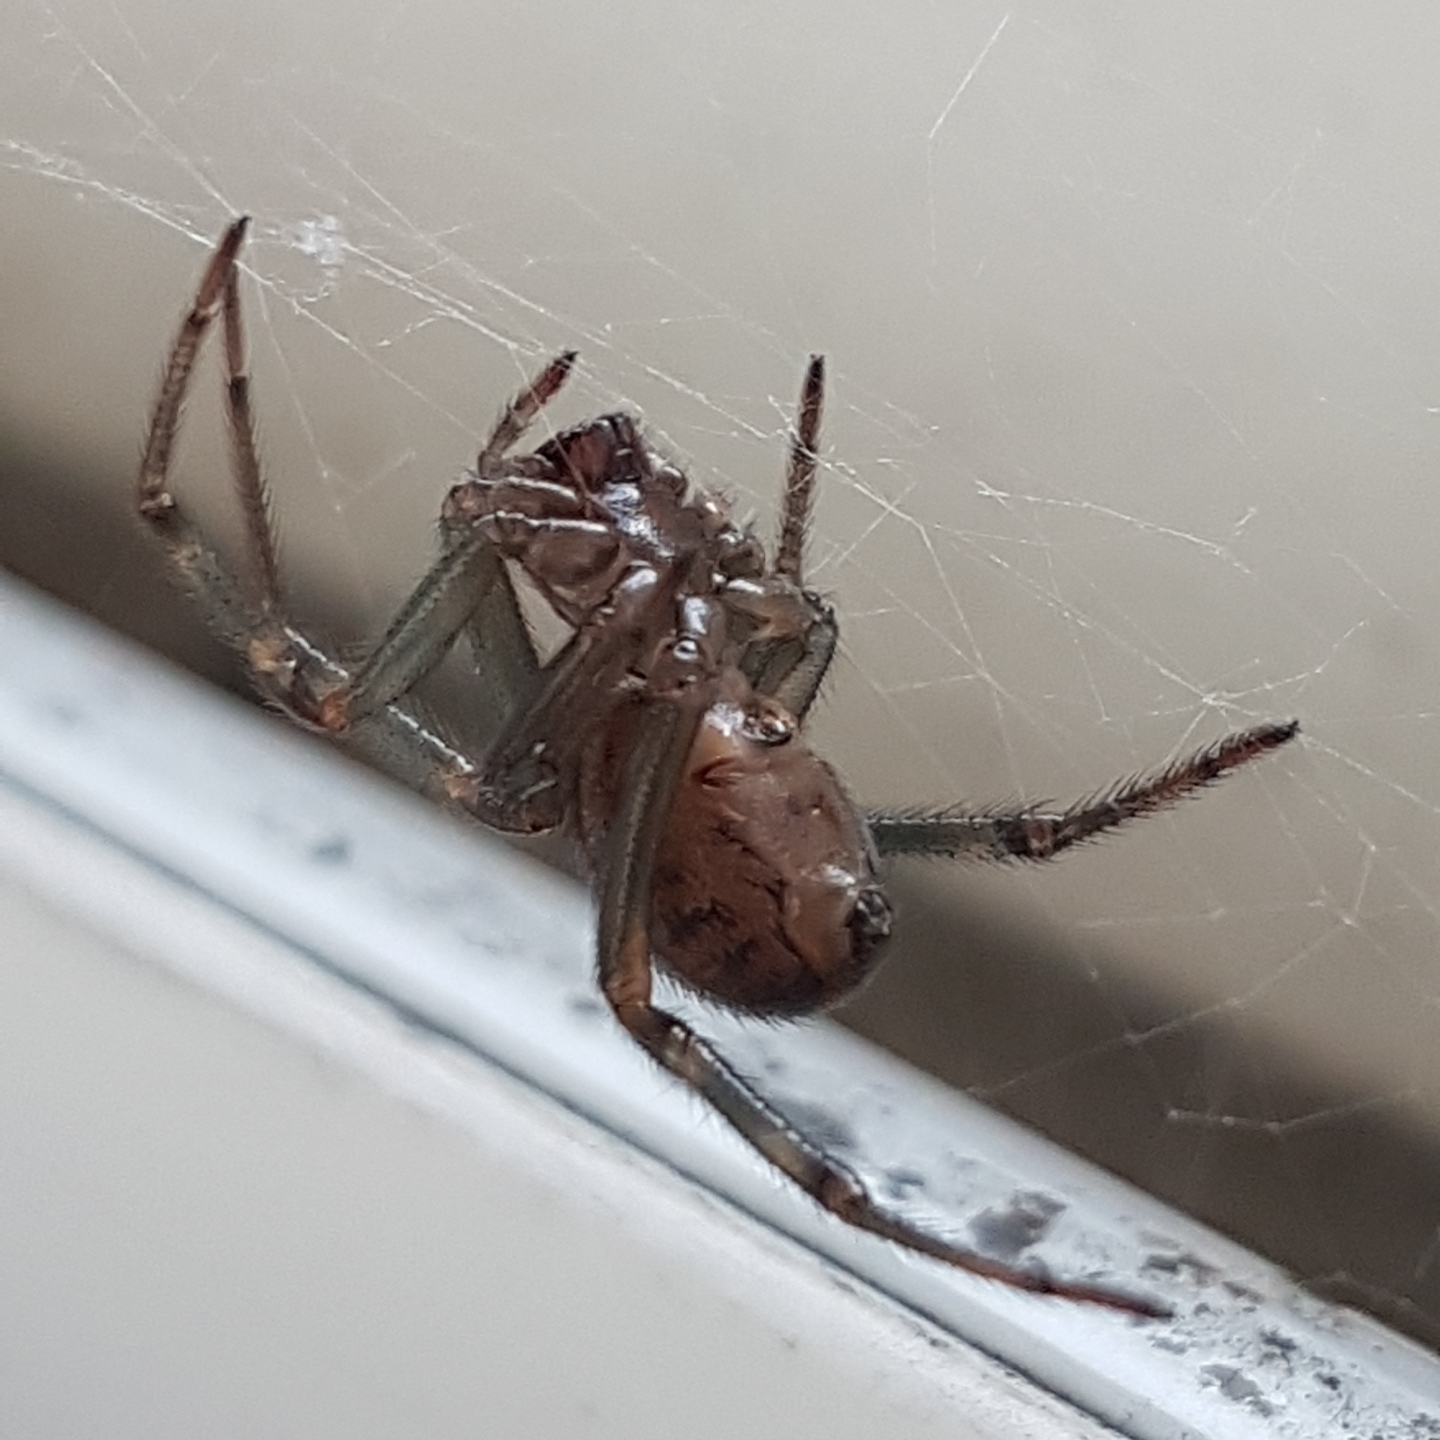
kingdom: Animalia
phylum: Arthropoda
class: Arachnida
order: Araneae
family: Theridiidae
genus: Steatoda
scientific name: Steatoda nobilis
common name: Cobweb weaver
